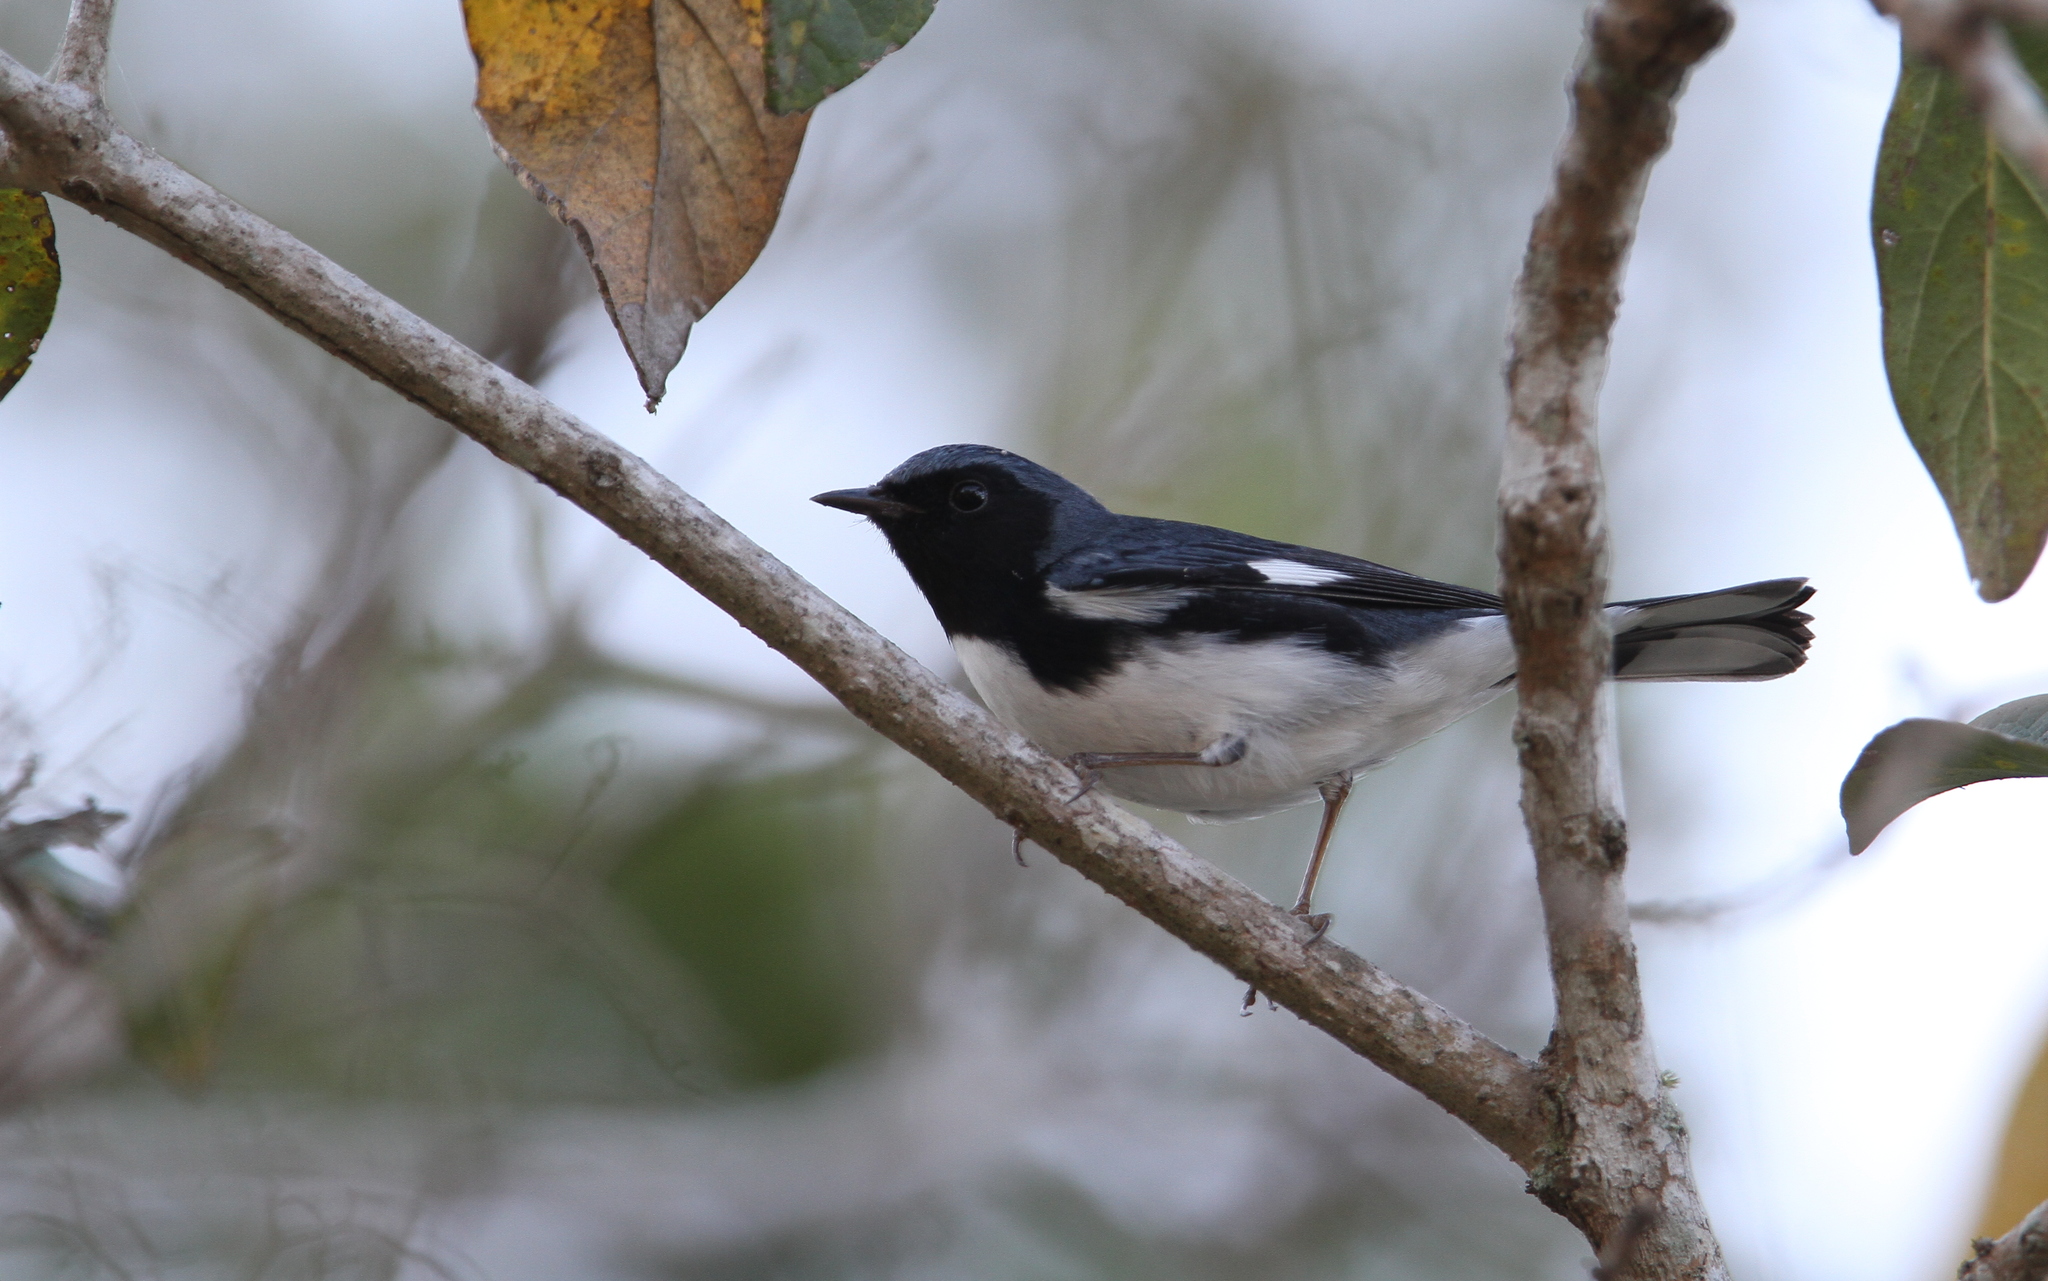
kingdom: Animalia
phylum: Chordata
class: Aves
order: Passeriformes
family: Parulidae
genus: Setophaga
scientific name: Setophaga caerulescens
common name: Black-throated blue warbler
